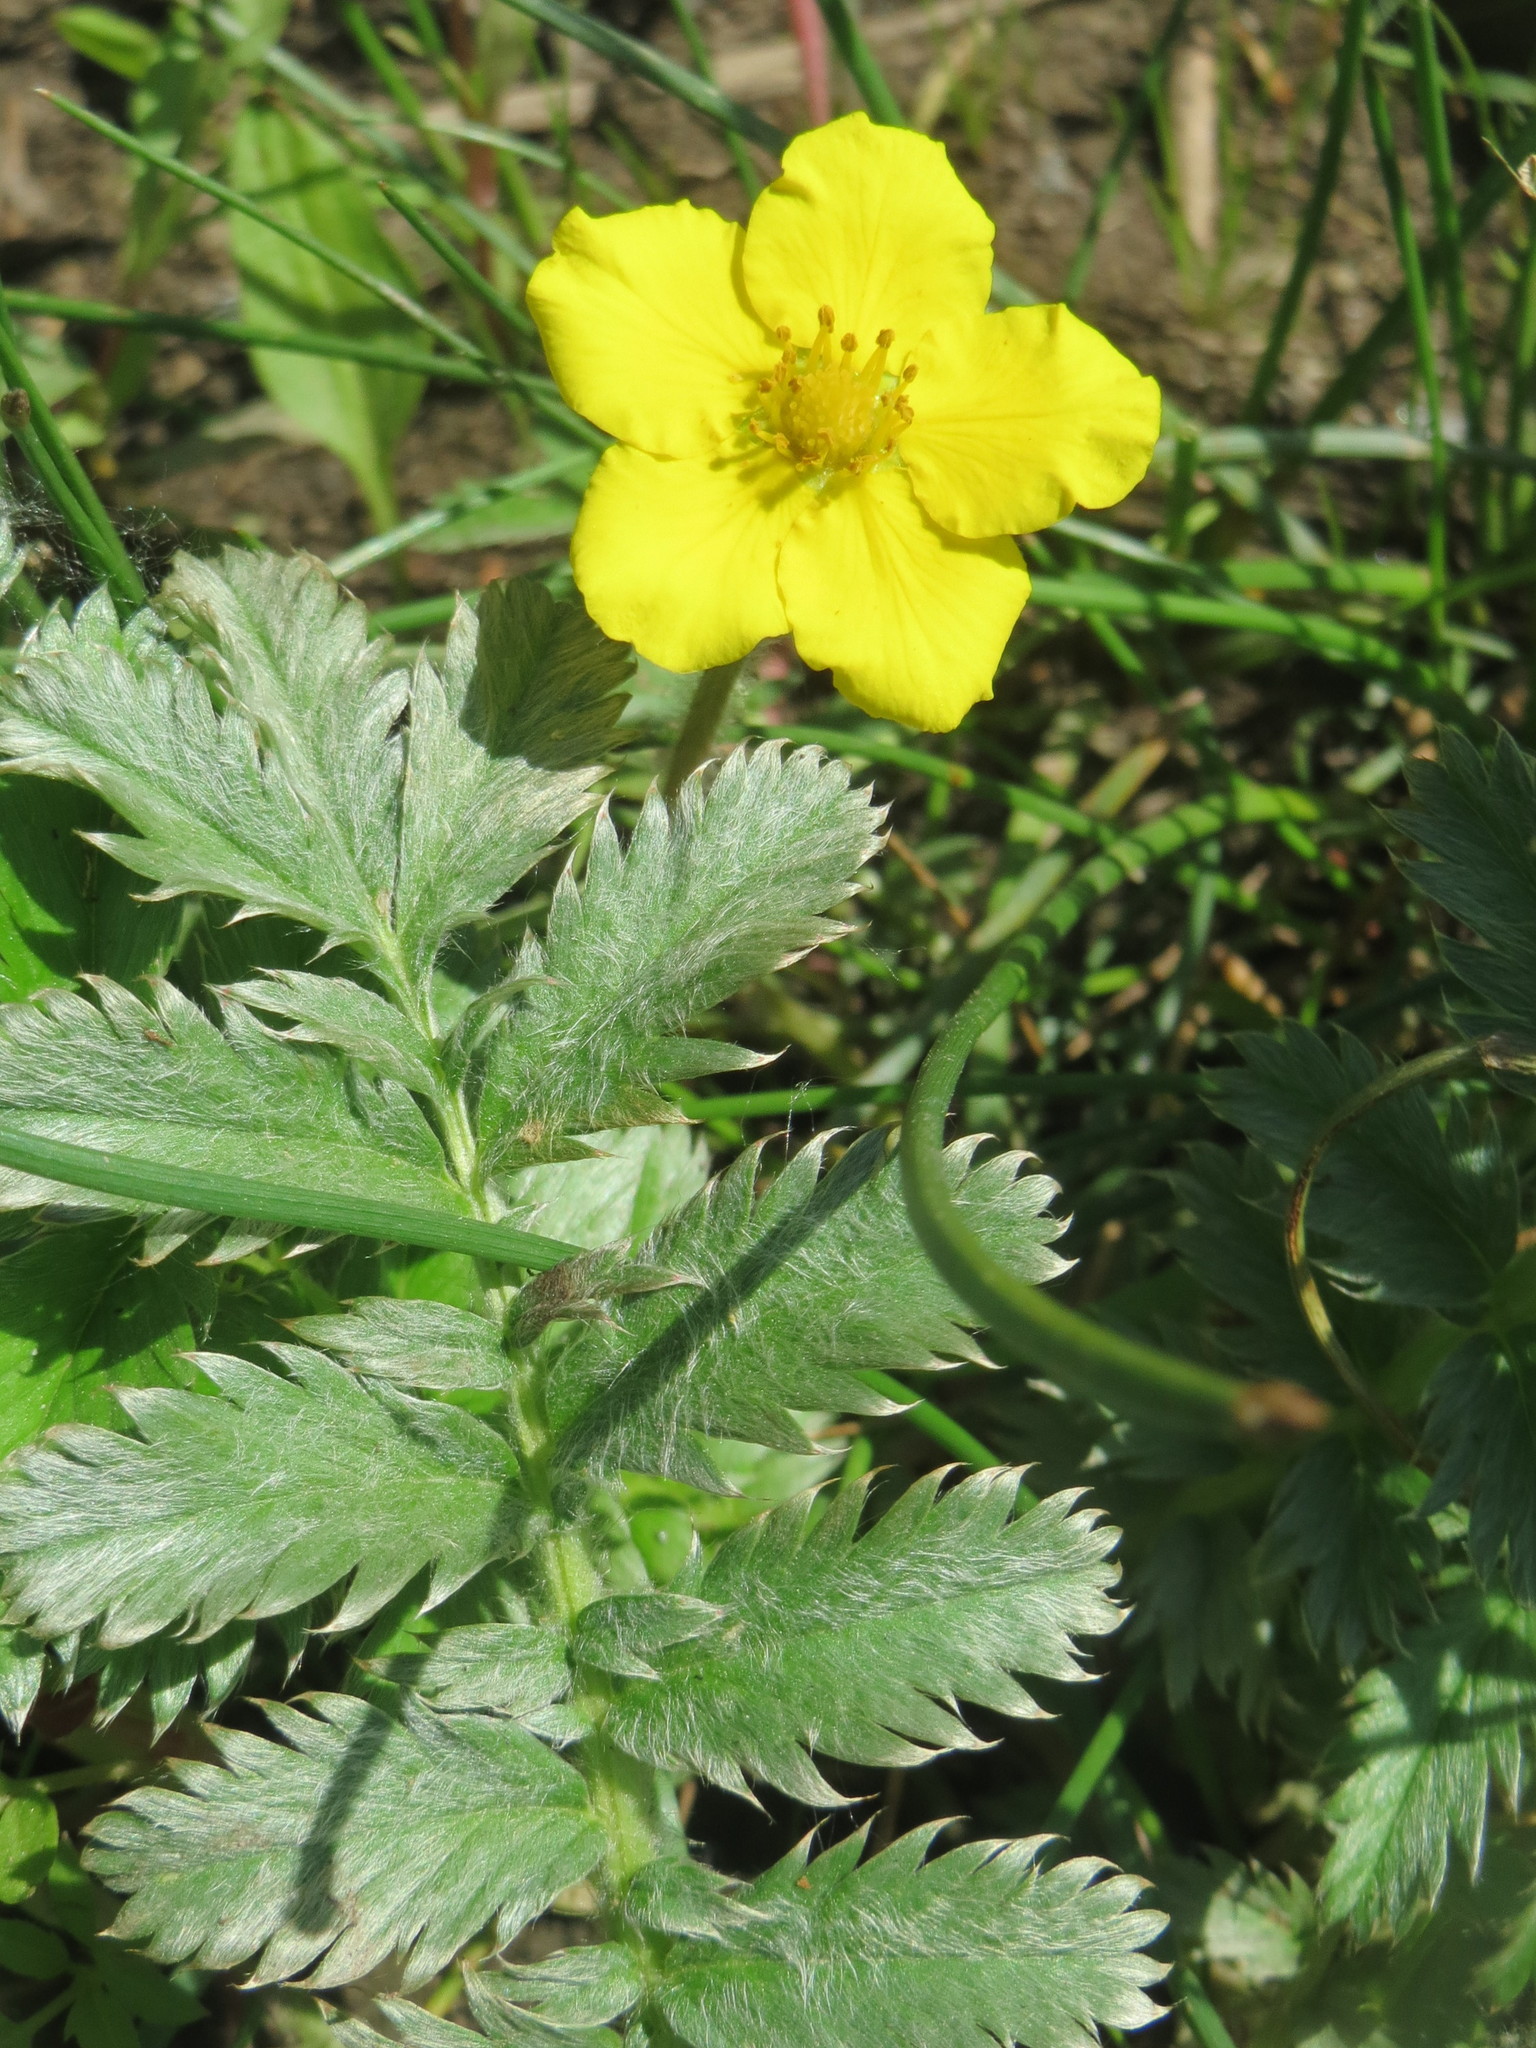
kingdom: Plantae
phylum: Tracheophyta
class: Magnoliopsida
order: Rosales
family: Rosaceae
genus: Argentina
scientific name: Argentina anserina
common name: Common silverweed
